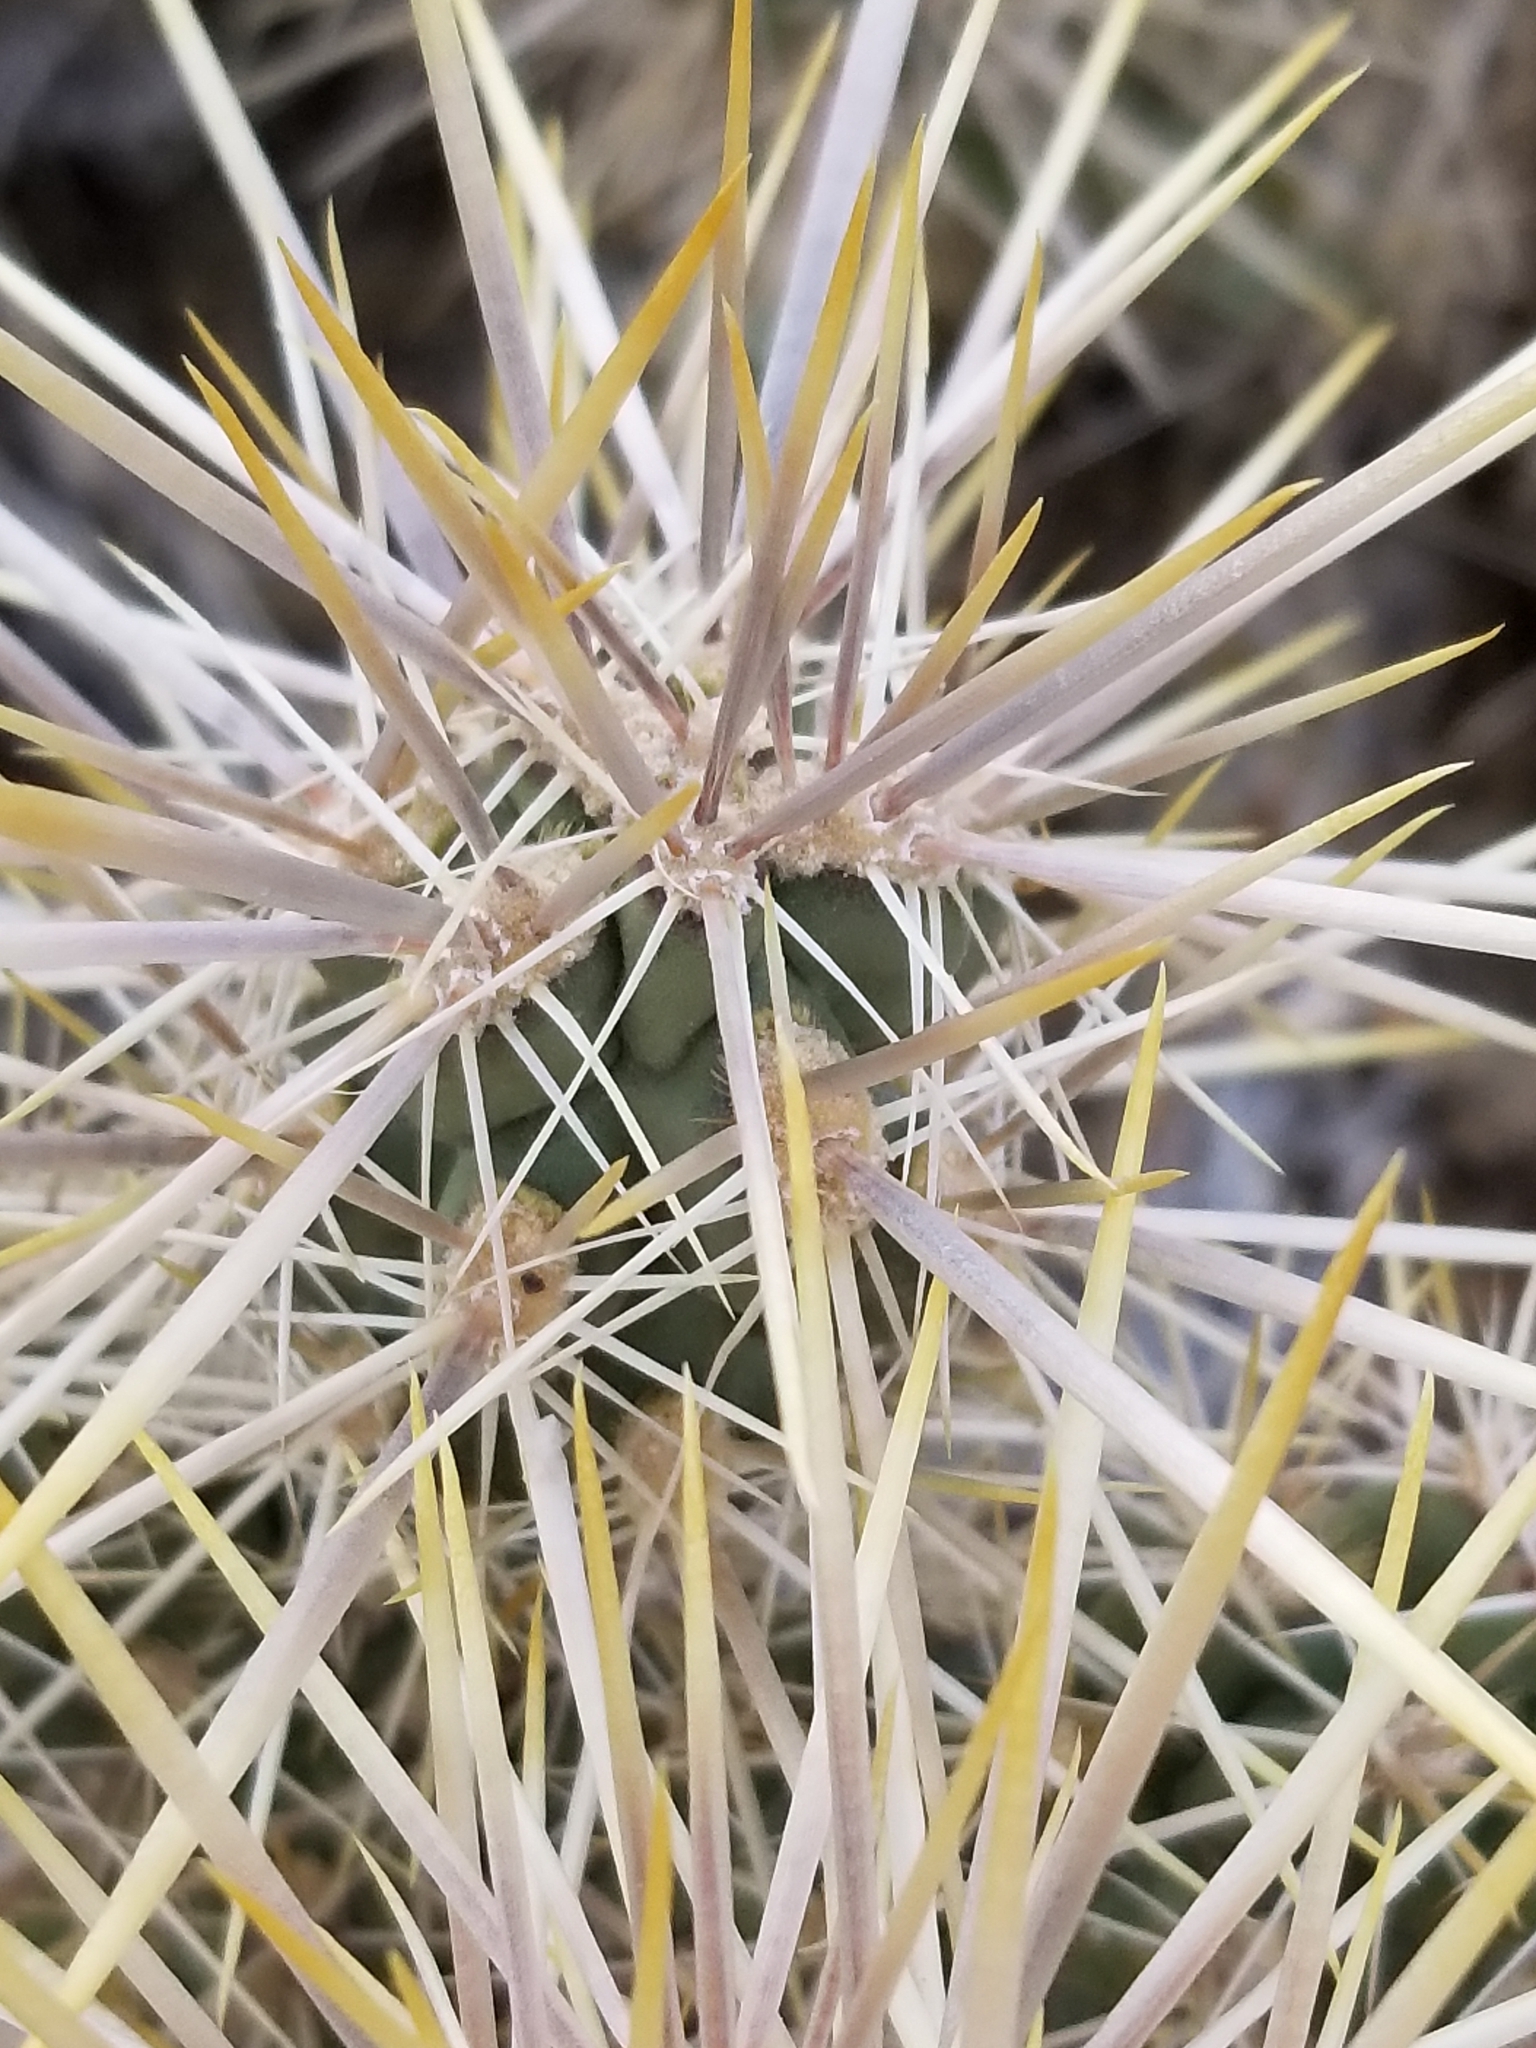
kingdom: Plantae
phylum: Tracheophyta
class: Magnoliopsida
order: Caryophyllales
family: Cactaceae
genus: Cylindropuntia
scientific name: Cylindropuntia echinocarpa
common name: Ground cholla
